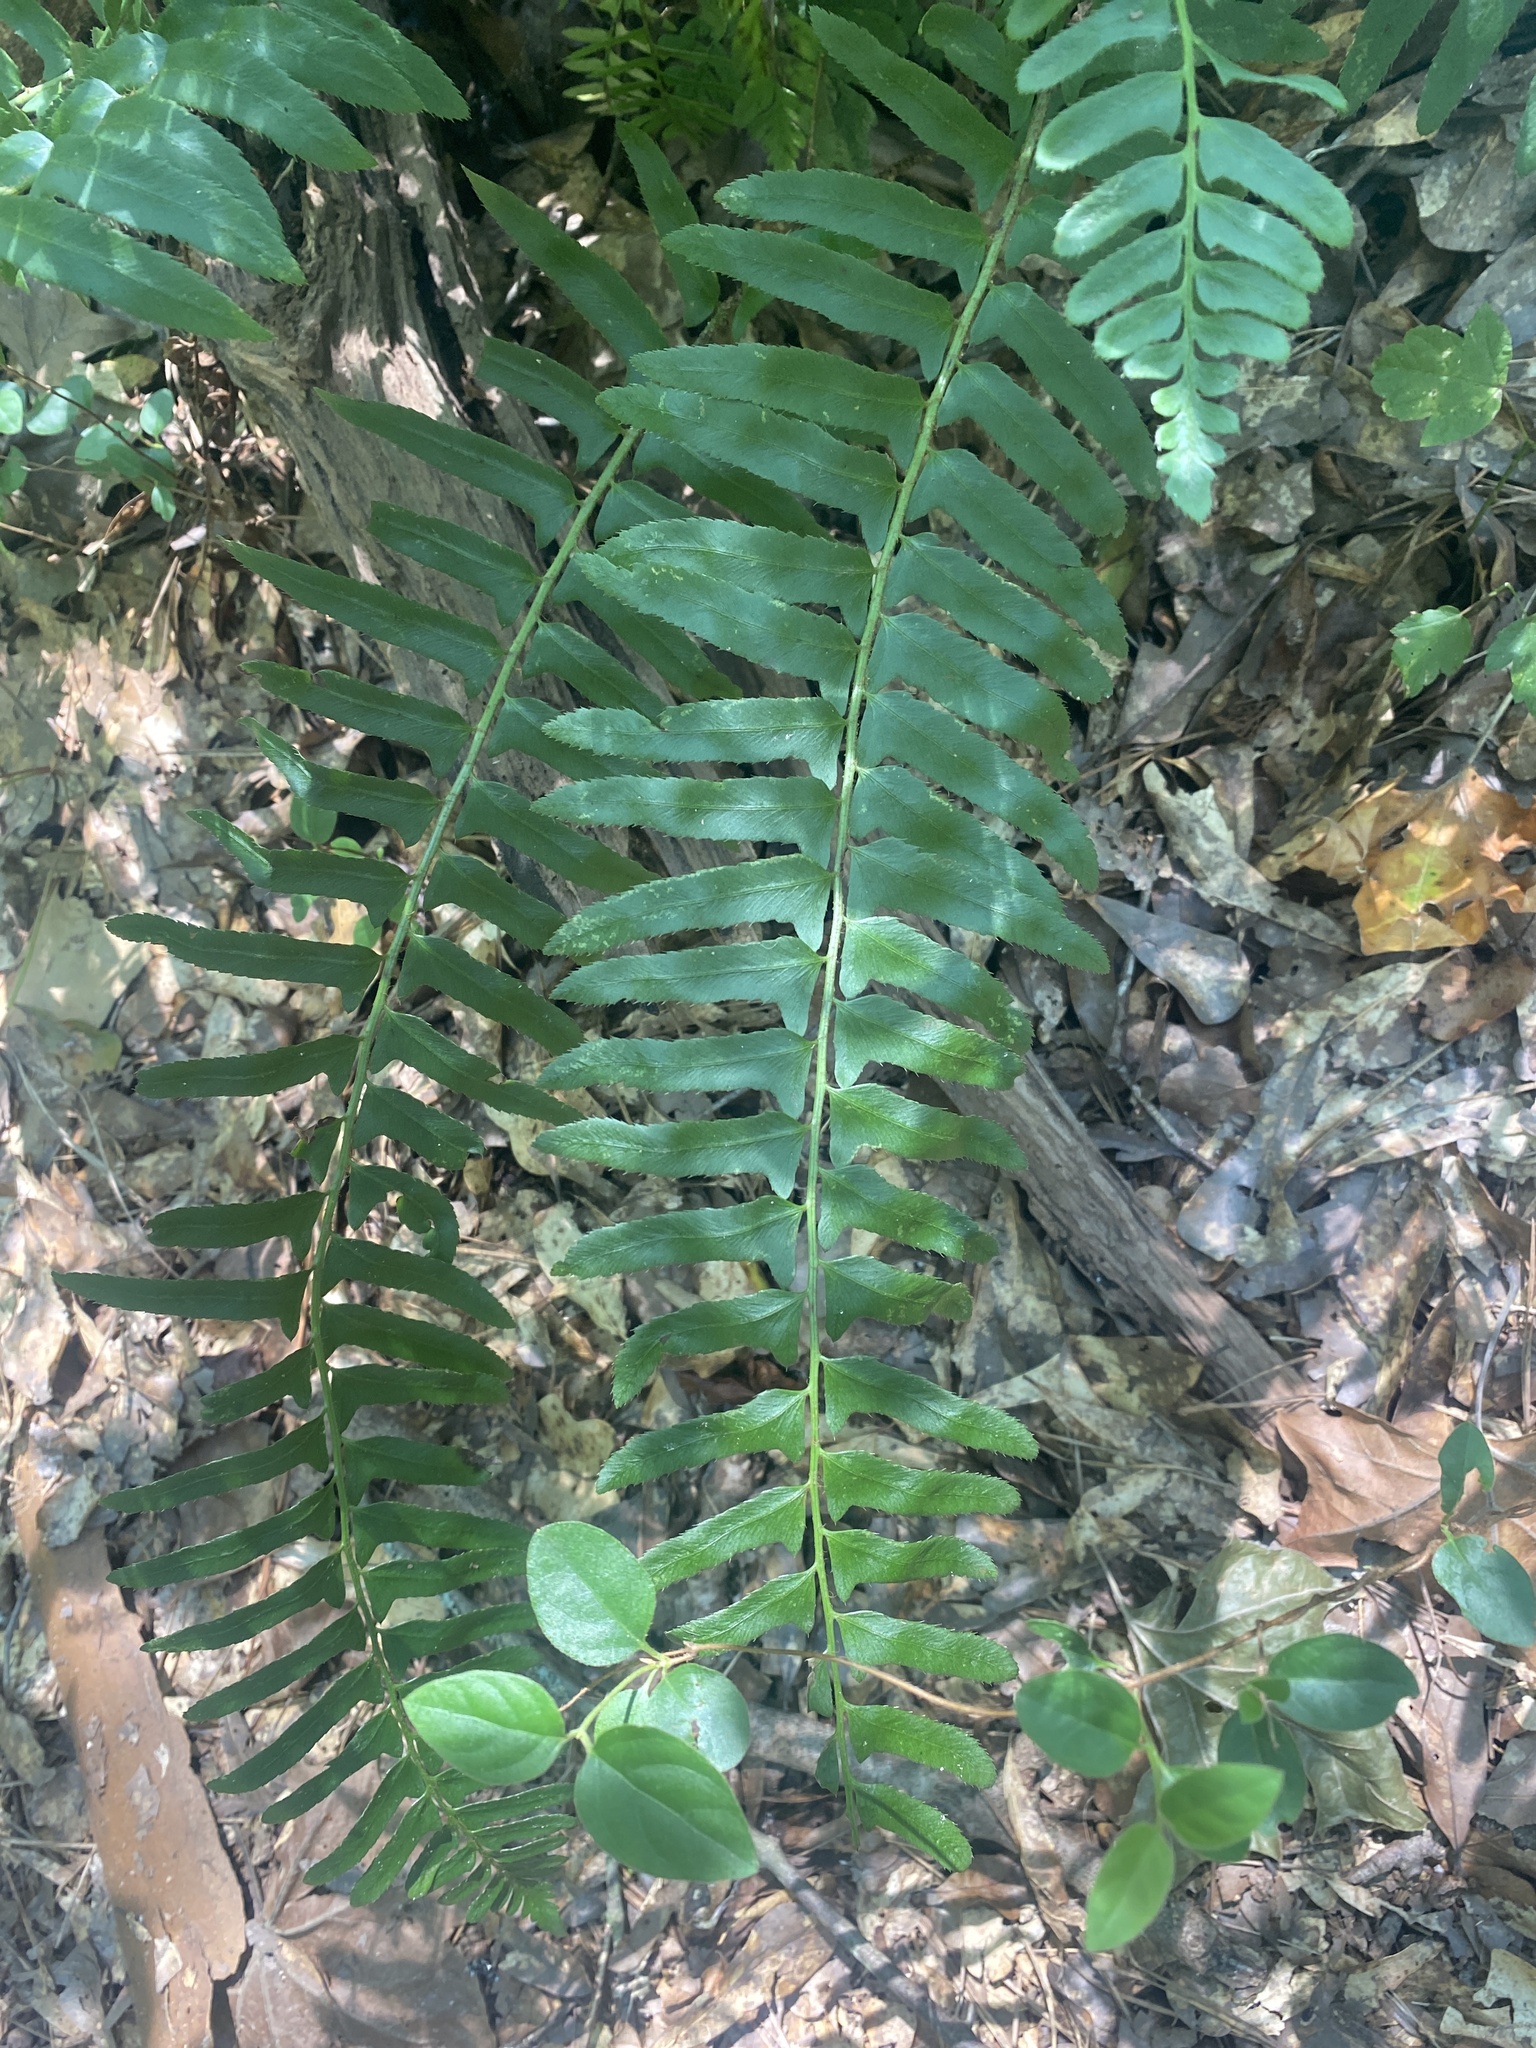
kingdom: Plantae
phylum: Tracheophyta
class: Polypodiopsida
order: Polypodiales
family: Dryopteridaceae
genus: Polystichum
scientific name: Polystichum acrostichoides
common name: Christmas fern
